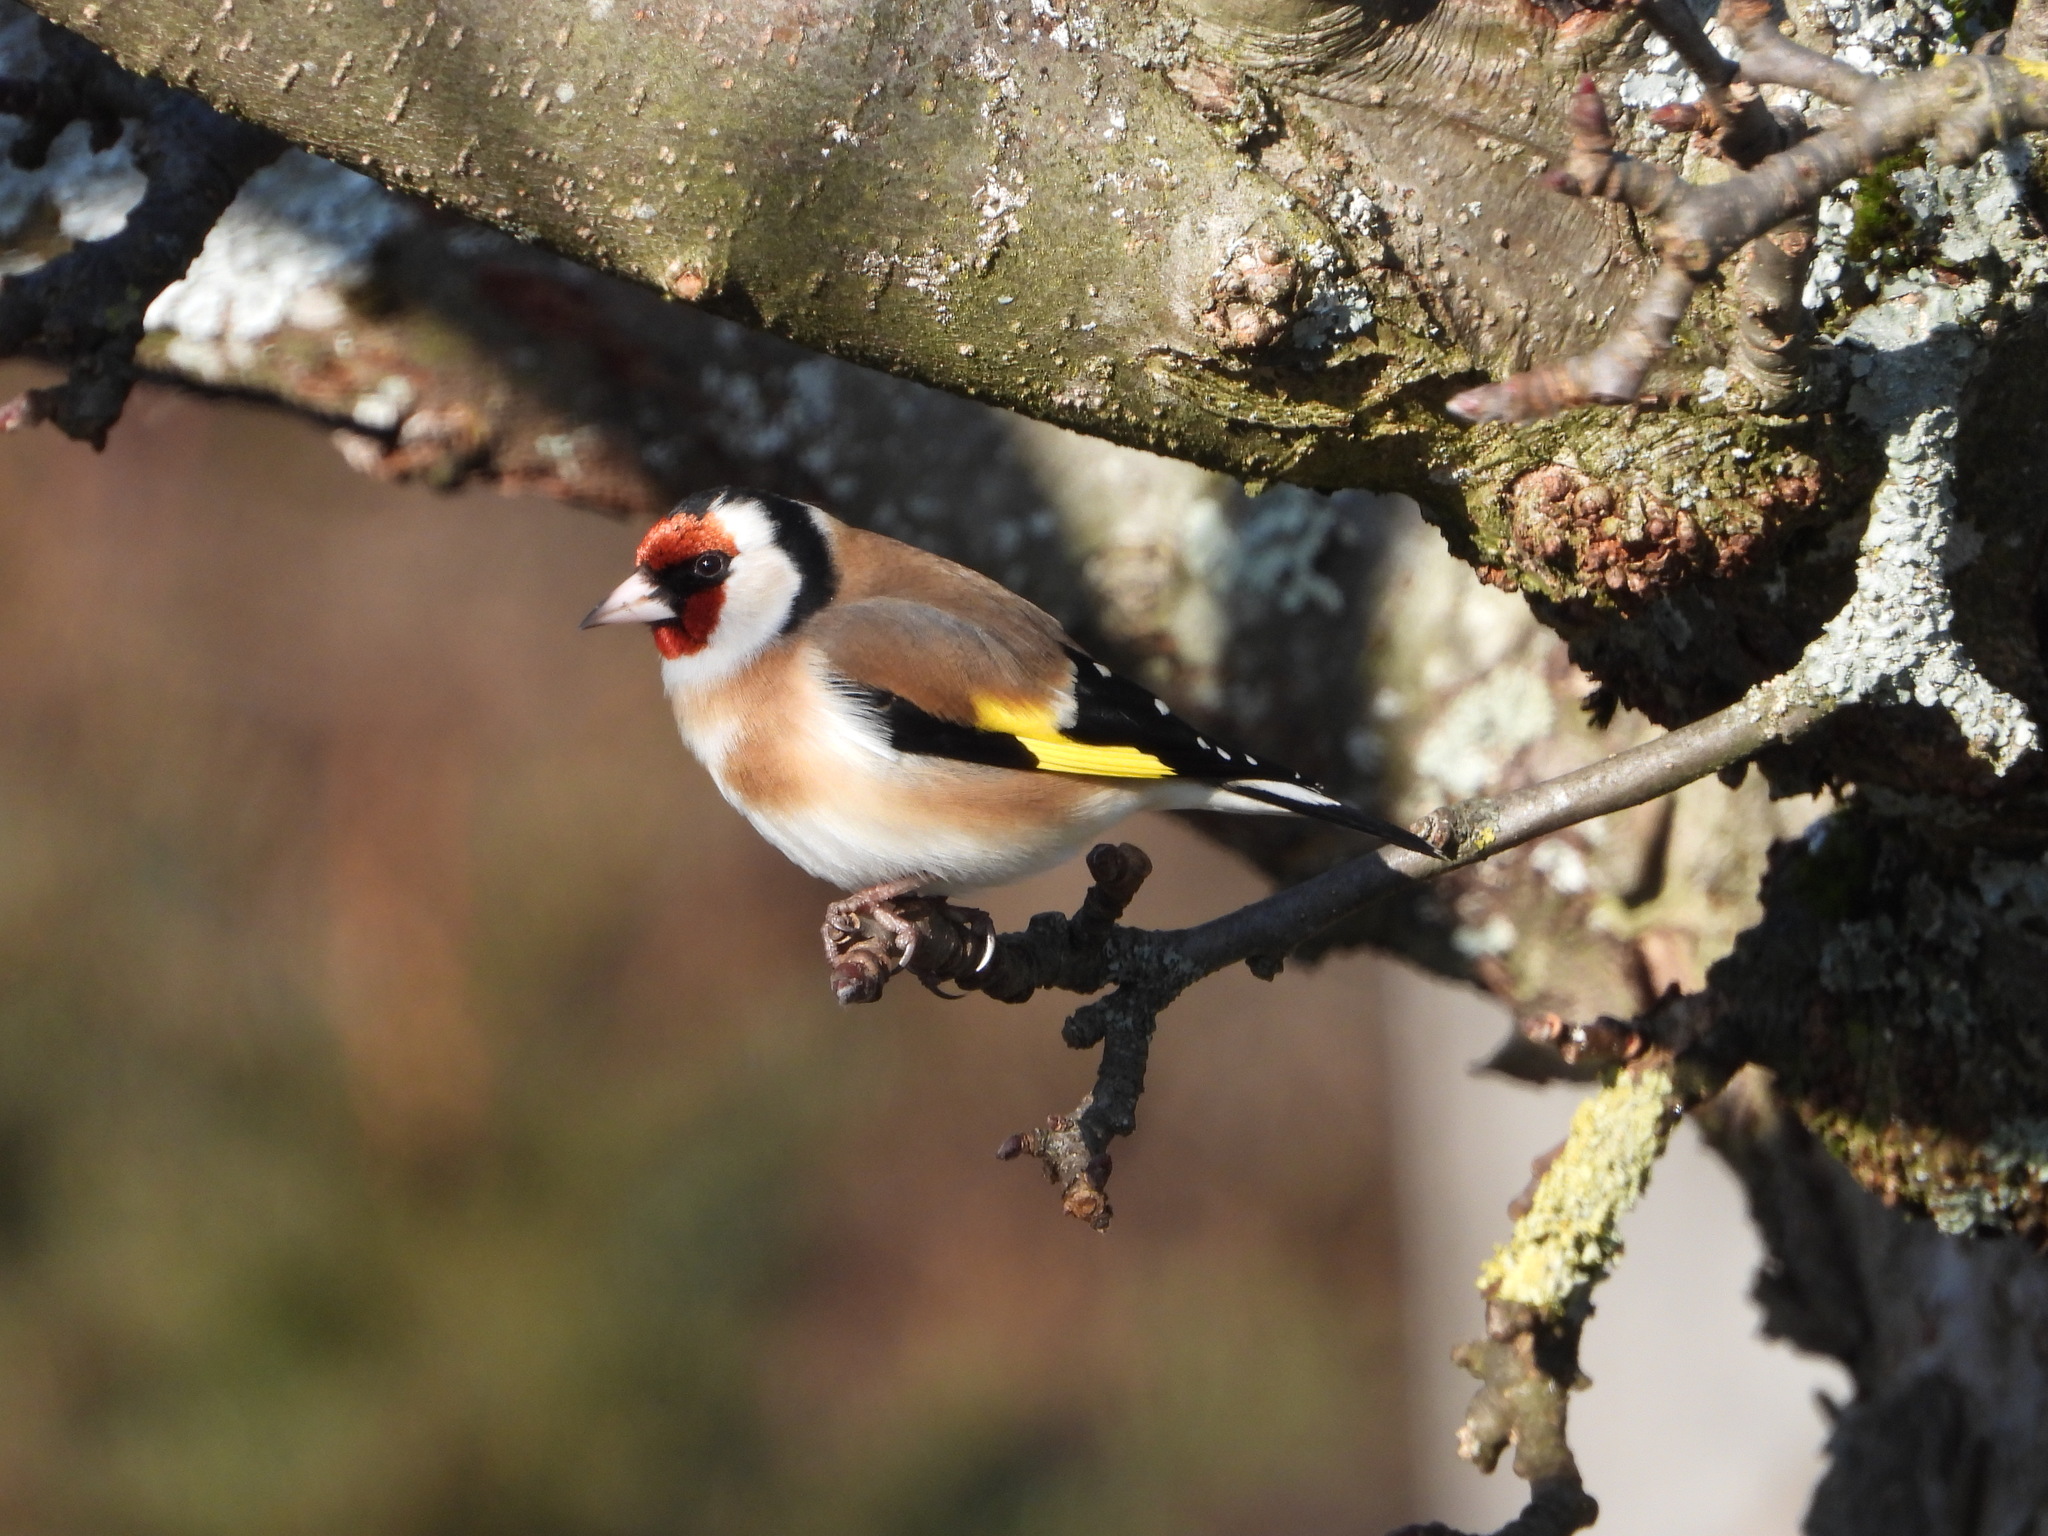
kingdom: Animalia
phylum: Chordata
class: Aves
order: Passeriformes
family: Fringillidae
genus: Carduelis
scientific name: Carduelis carduelis
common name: European goldfinch
